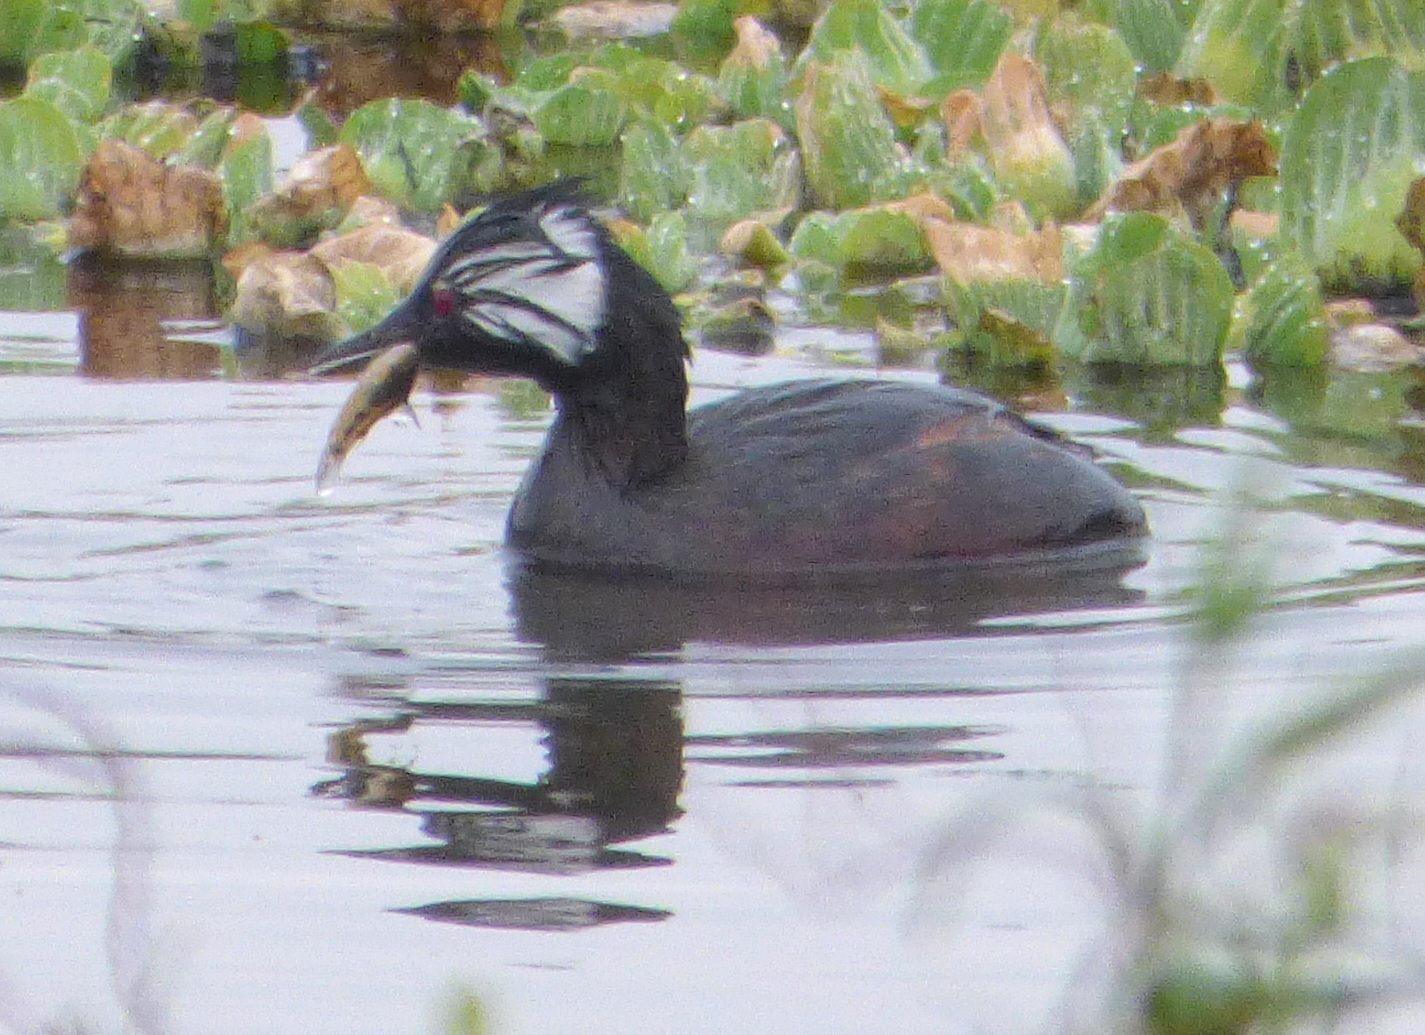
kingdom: Animalia
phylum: Chordata
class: Aves
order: Podicipediformes
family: Podicipedidae
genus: Rollandia
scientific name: Rollandia rolland
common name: White-tufted grebe
